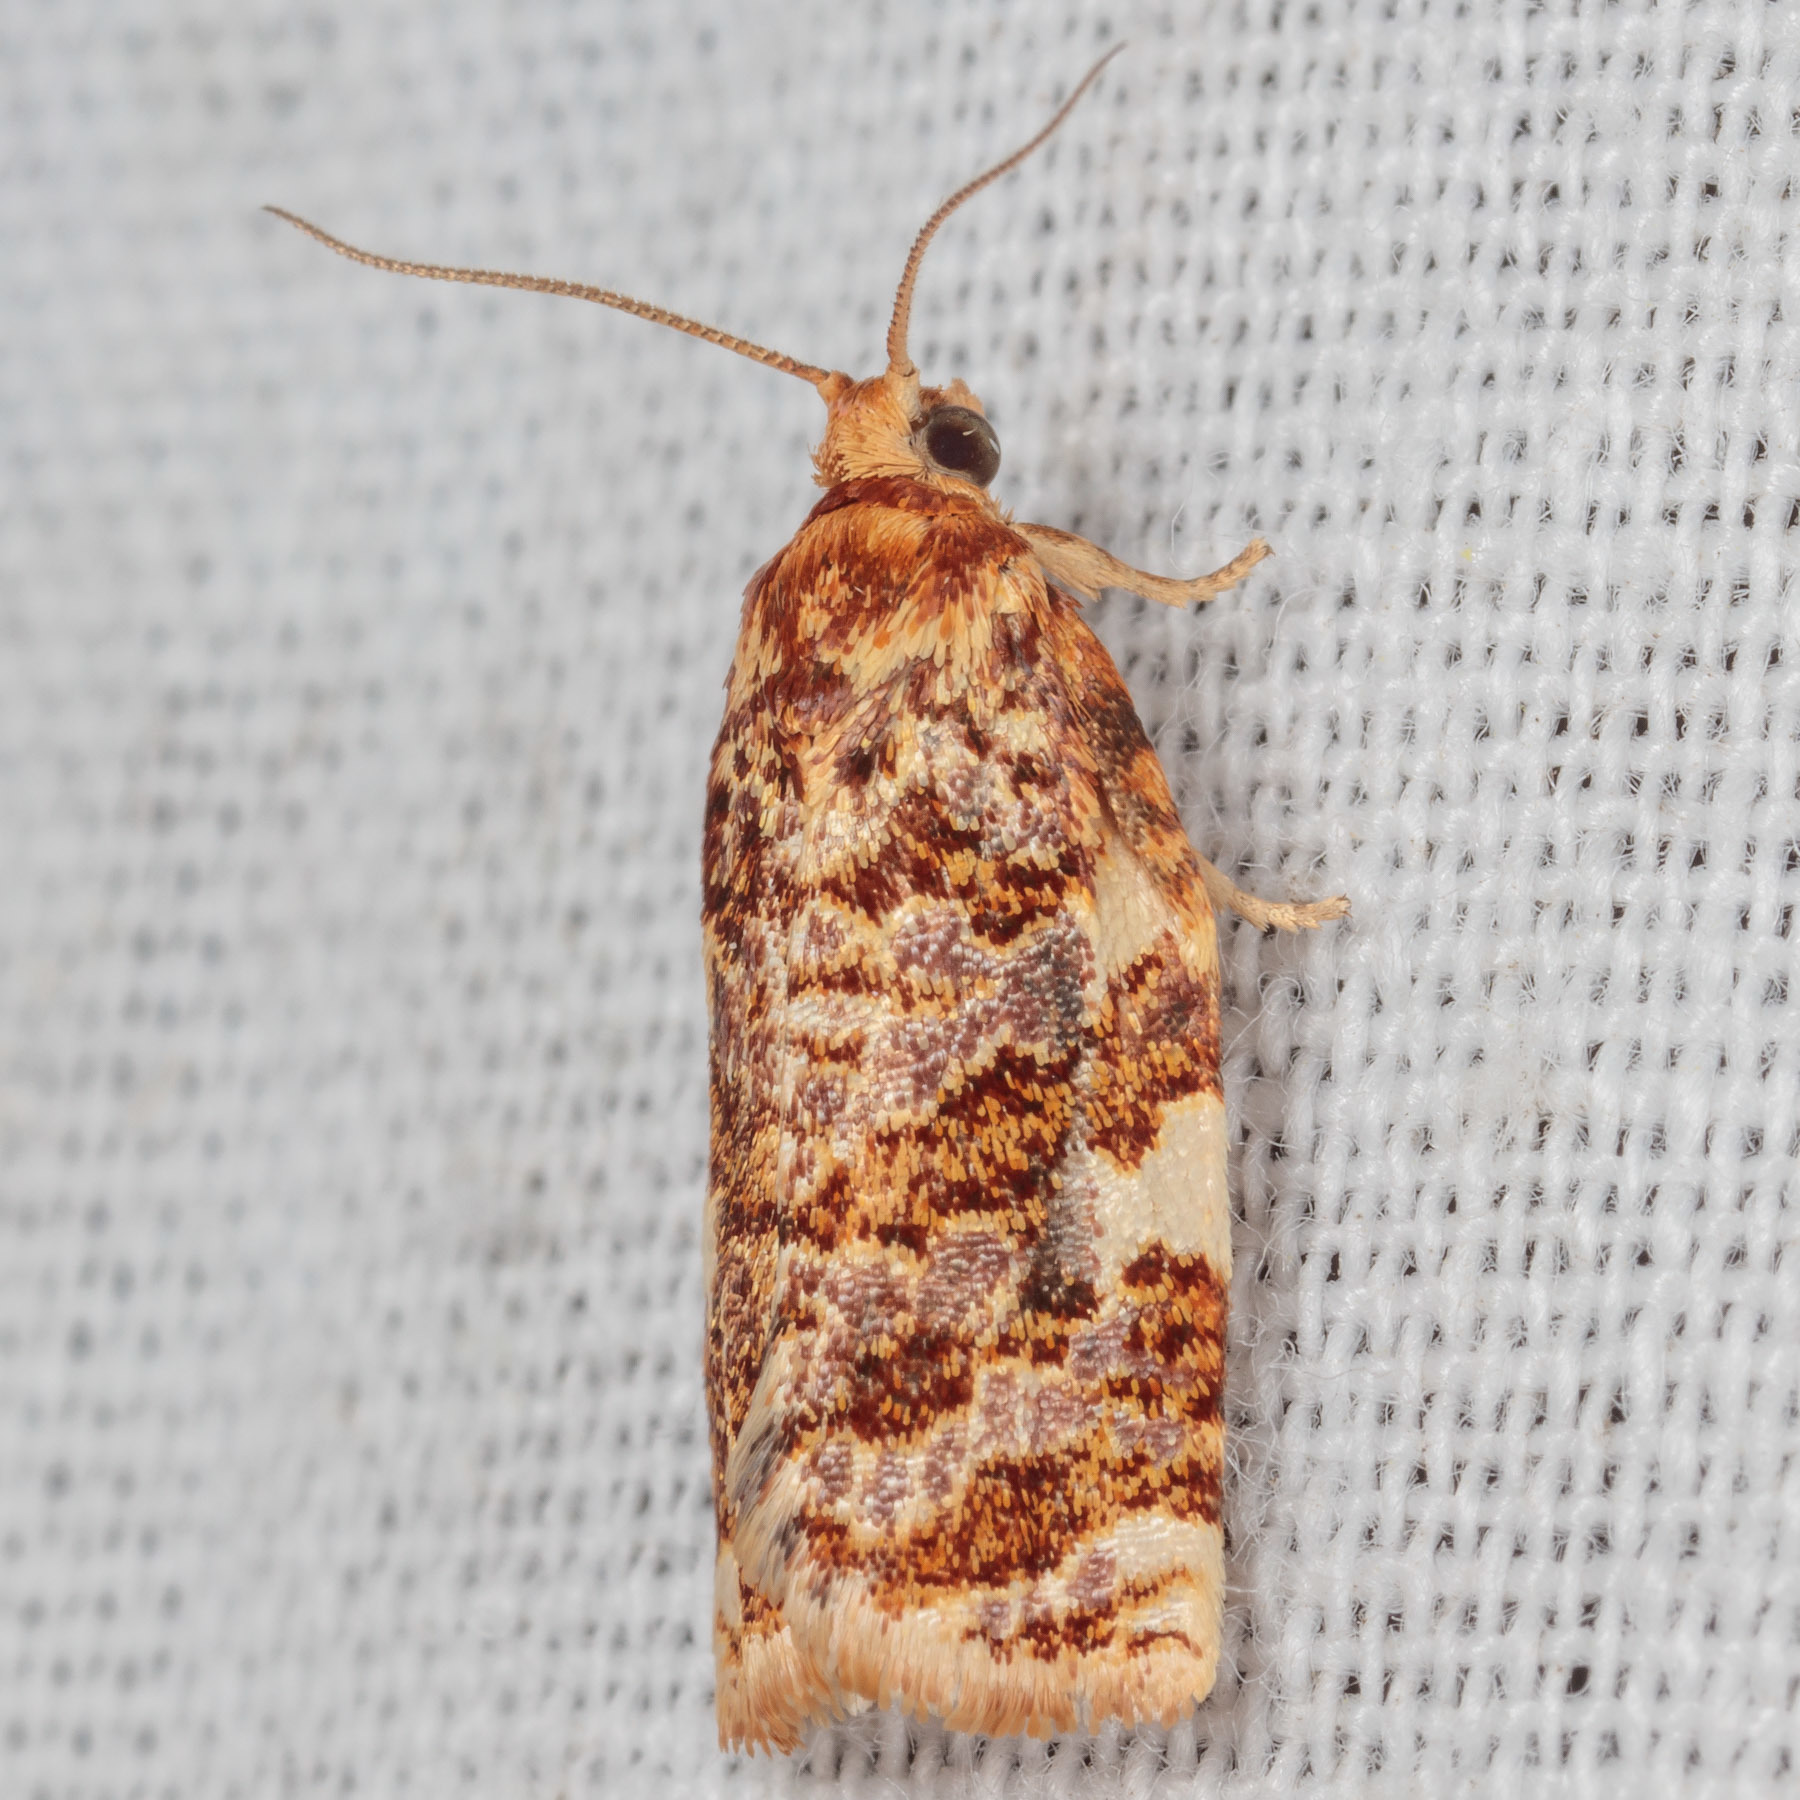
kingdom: Animalia
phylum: Arthropoda
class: Insecta
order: Lepidoptera
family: Tortricidae
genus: Archips
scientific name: Archips argyrospila
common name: Fruit-tree leafroller moth
